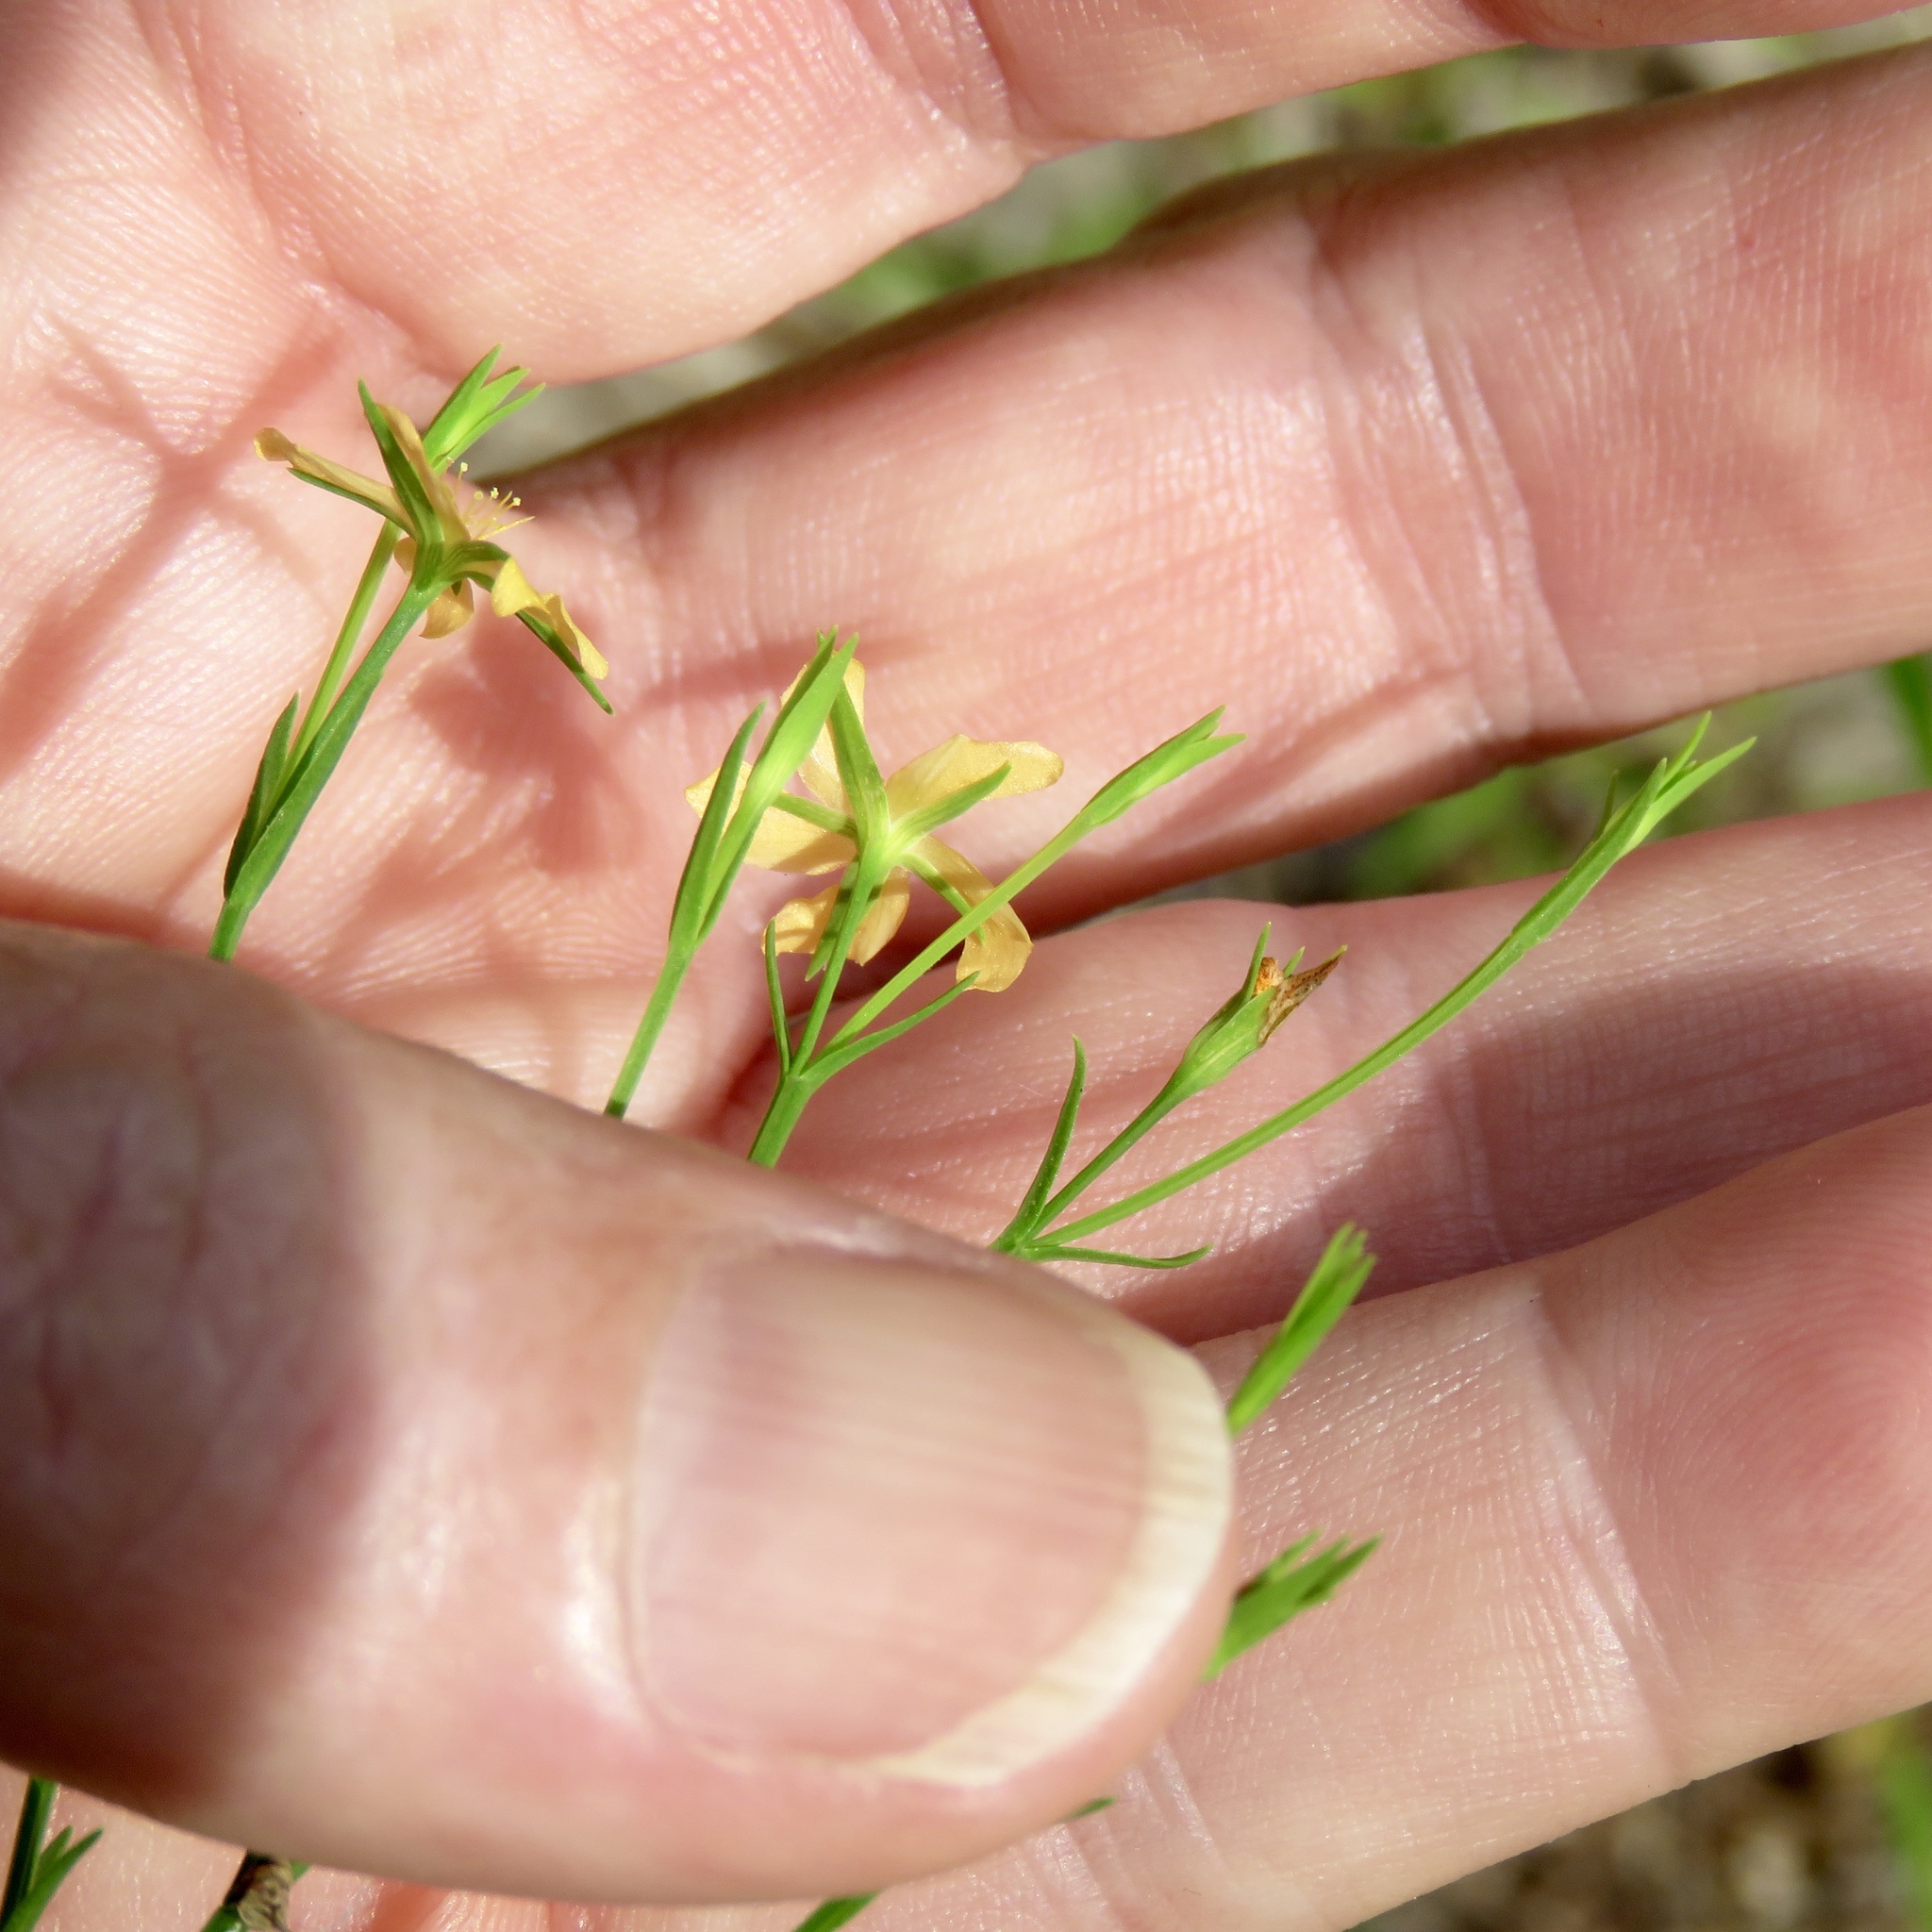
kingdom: Plantae
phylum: Tracheophyta
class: Magnoliopsida
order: Malpighiales
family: Hypericaceae
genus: Hypericum
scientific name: Hypericum drummondii
